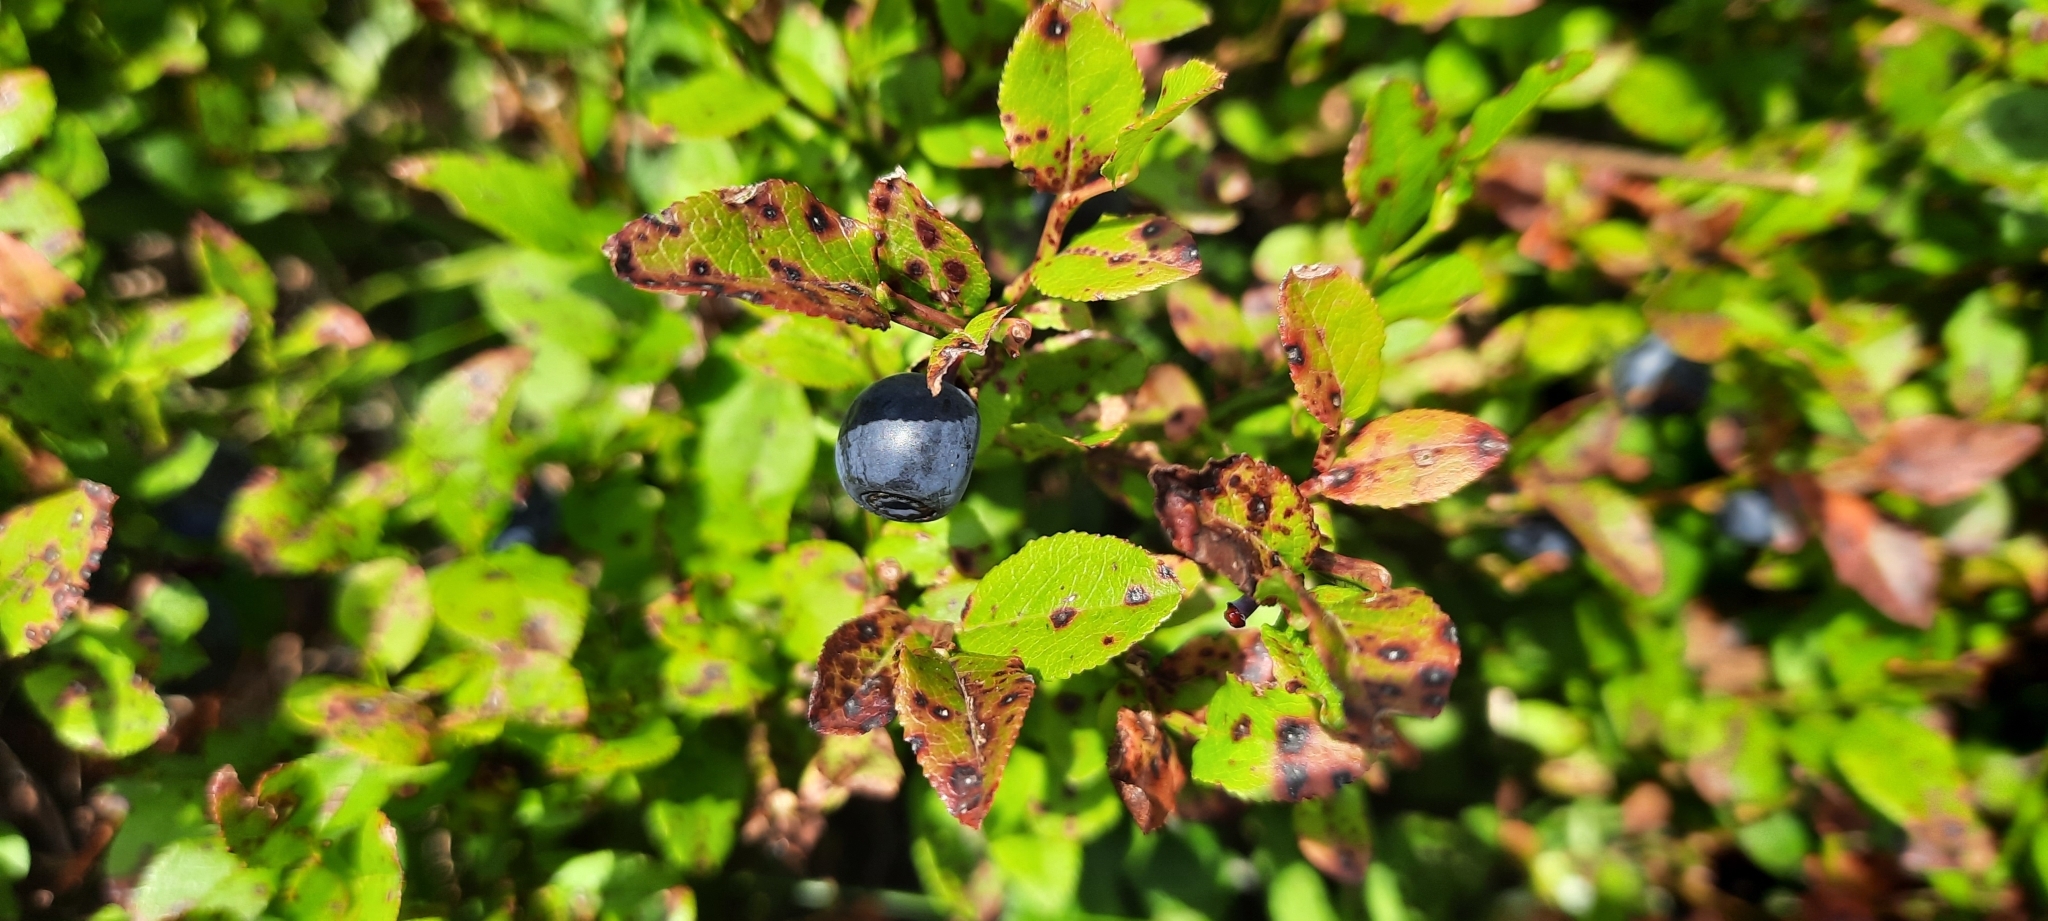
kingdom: Plantae
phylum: Tracheophyta
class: Magnoliopsida
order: Ericales
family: Ericaceae
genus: Vaccinium
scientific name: Vaccinium myrtillus
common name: Bilberry
